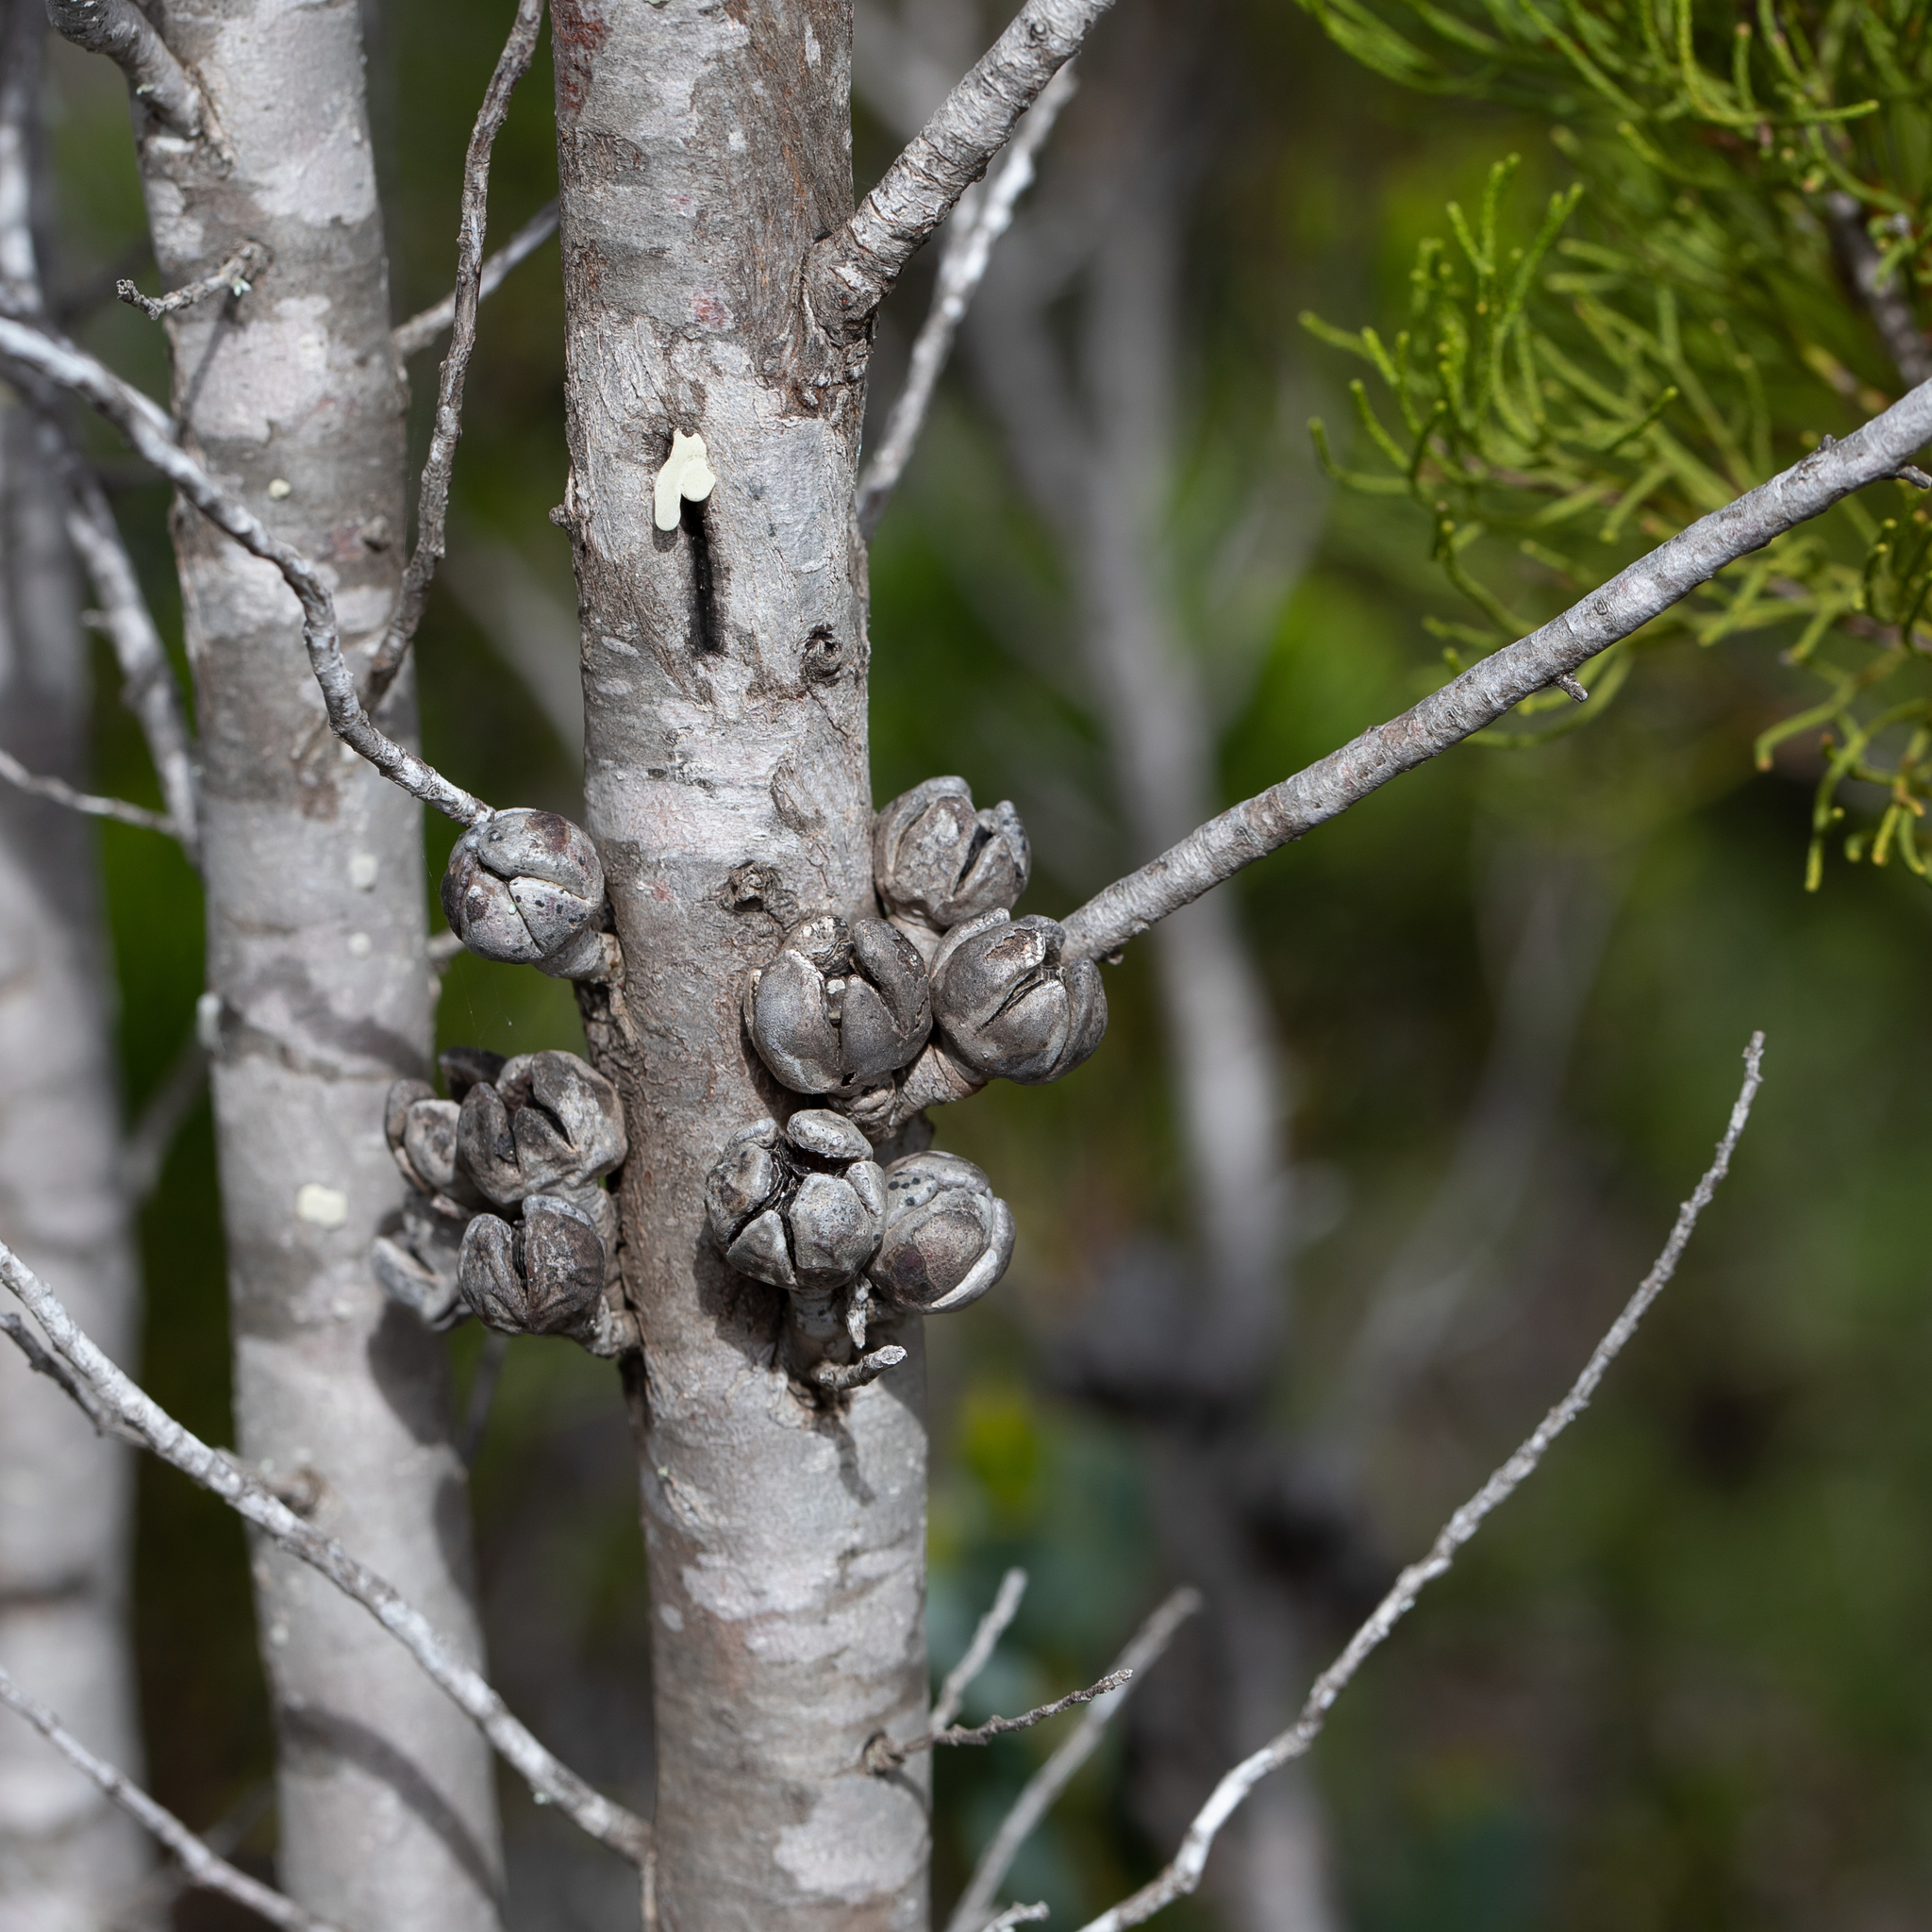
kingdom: Plantae
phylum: Tracheophyta
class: Pinopsida
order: Pinales
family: Cupressaceae
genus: Callitris
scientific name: Callitris preissii
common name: Mallee pine
